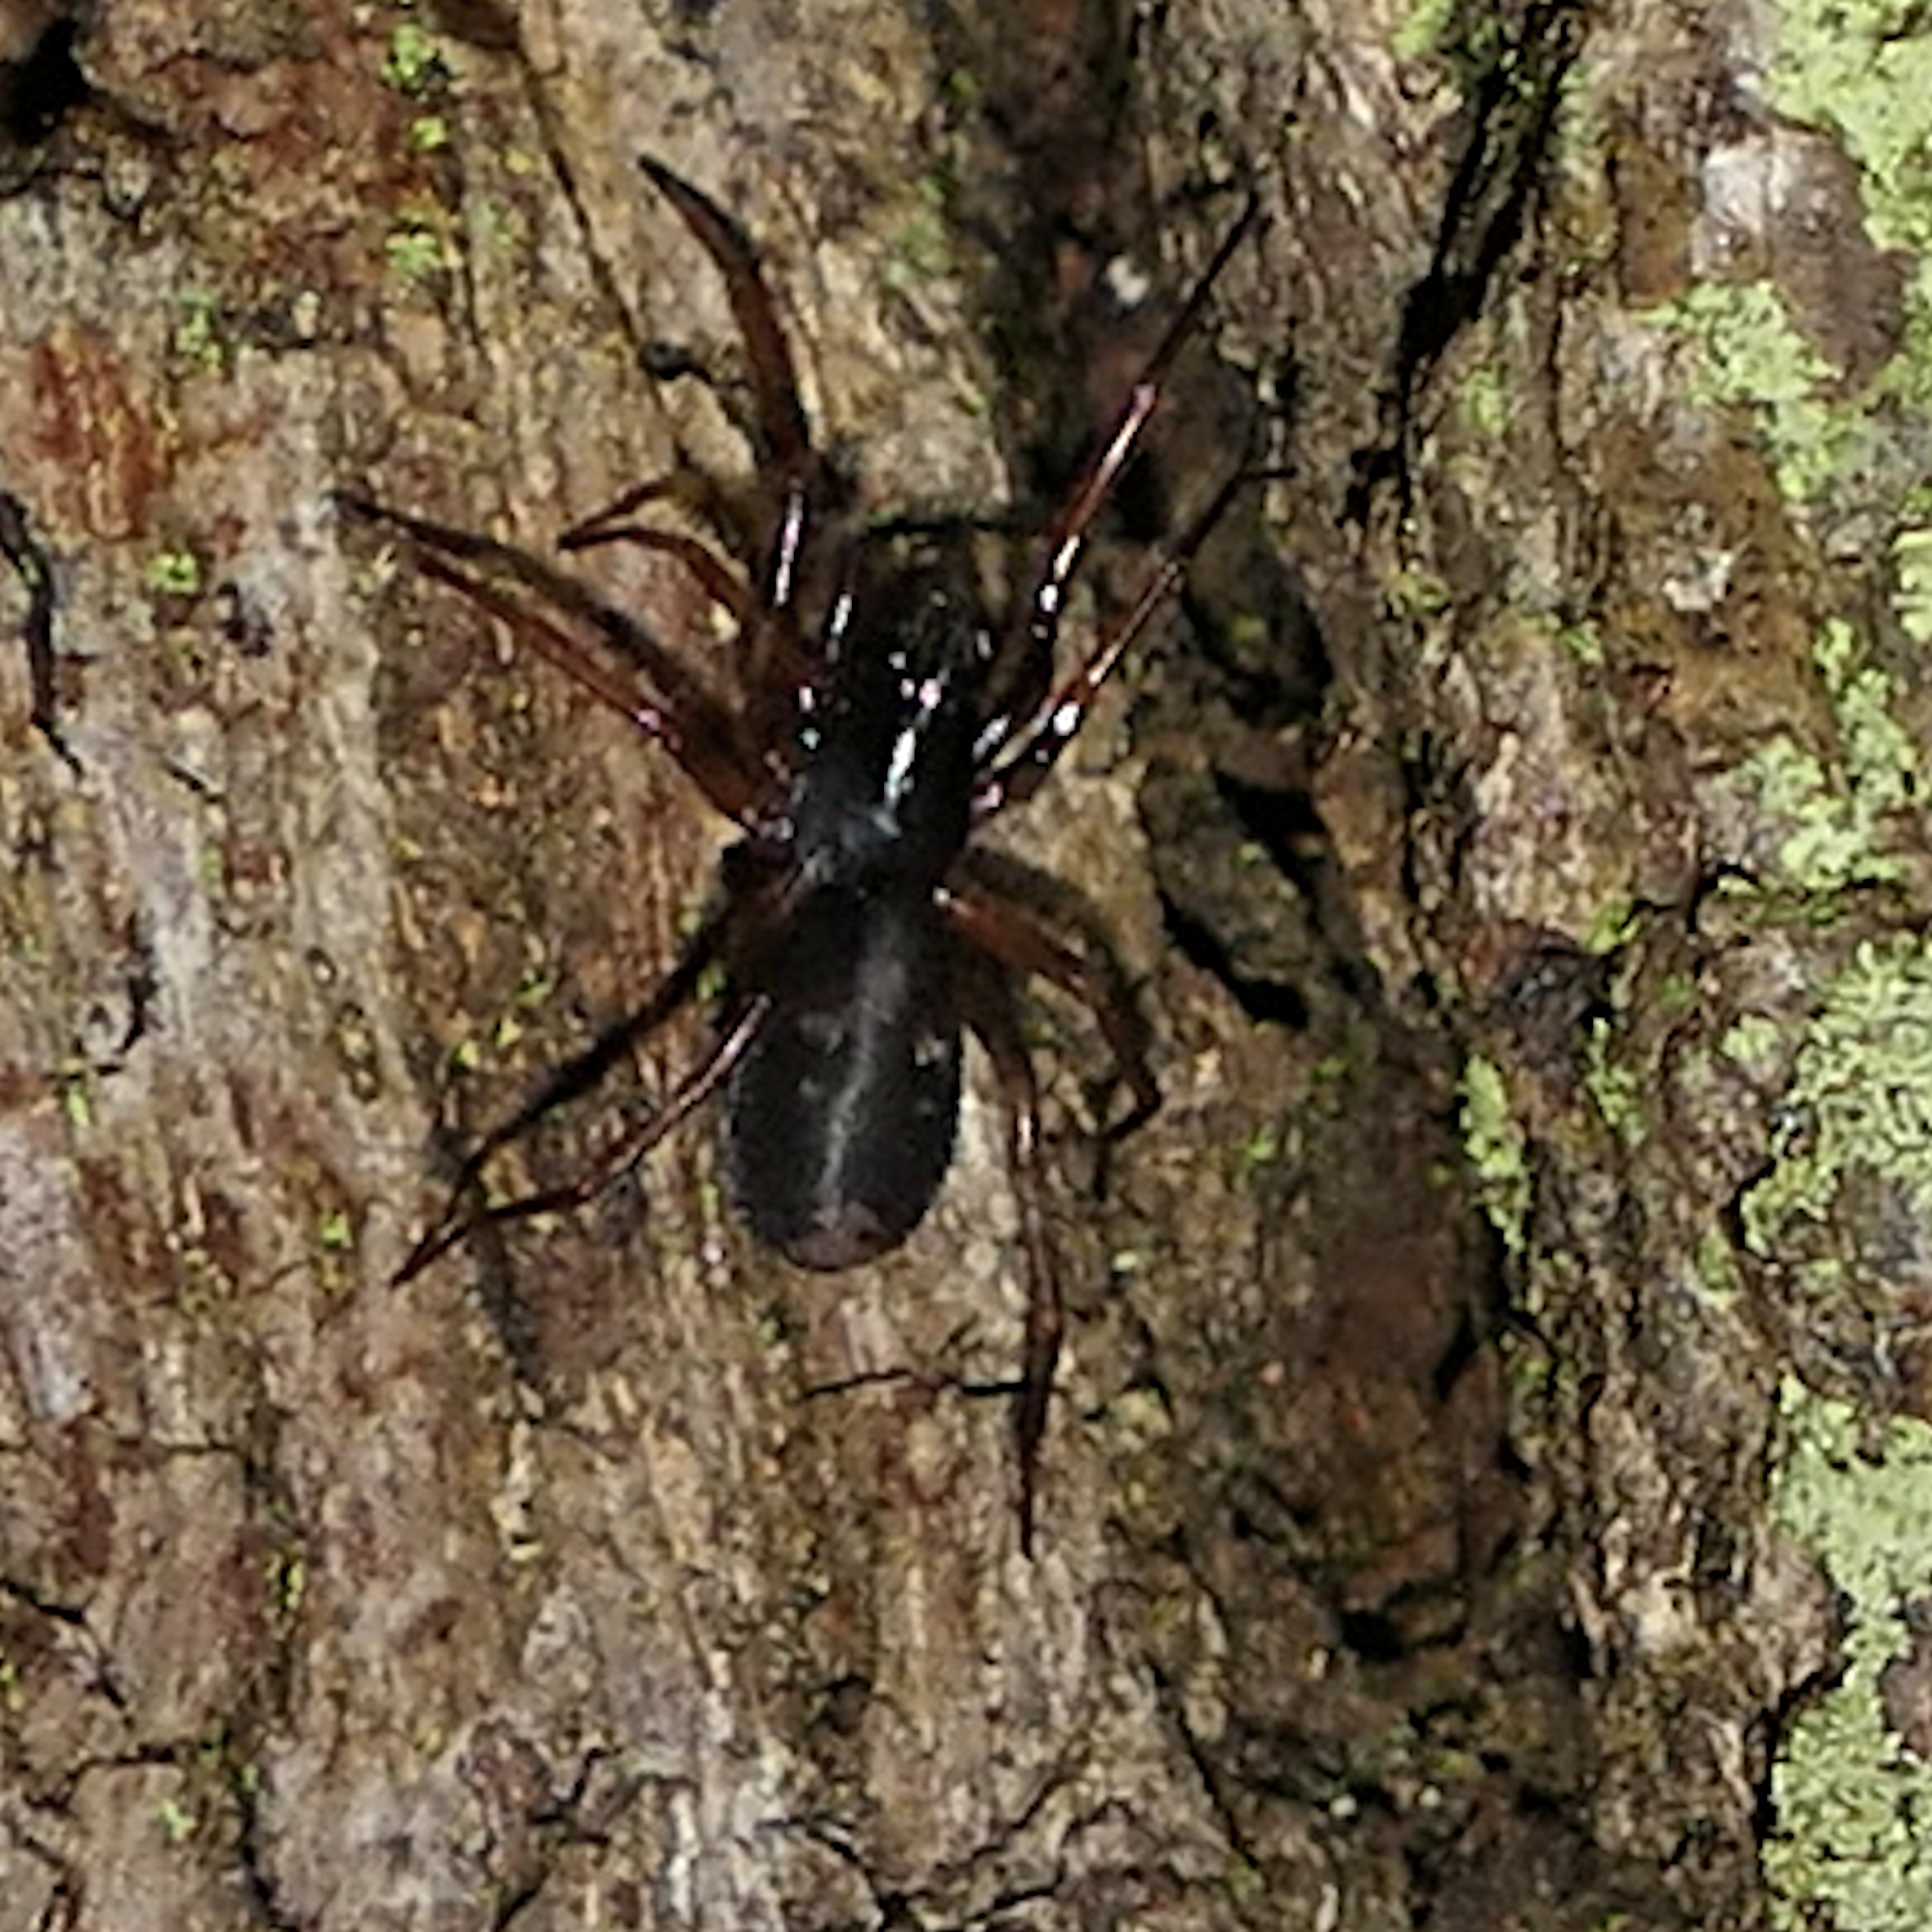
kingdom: Animalia
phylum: Arthropoda
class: Arachnida
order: Araneae
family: Corinnidae
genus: Falconina
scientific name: Falconina gracilis
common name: Antmimic spider
